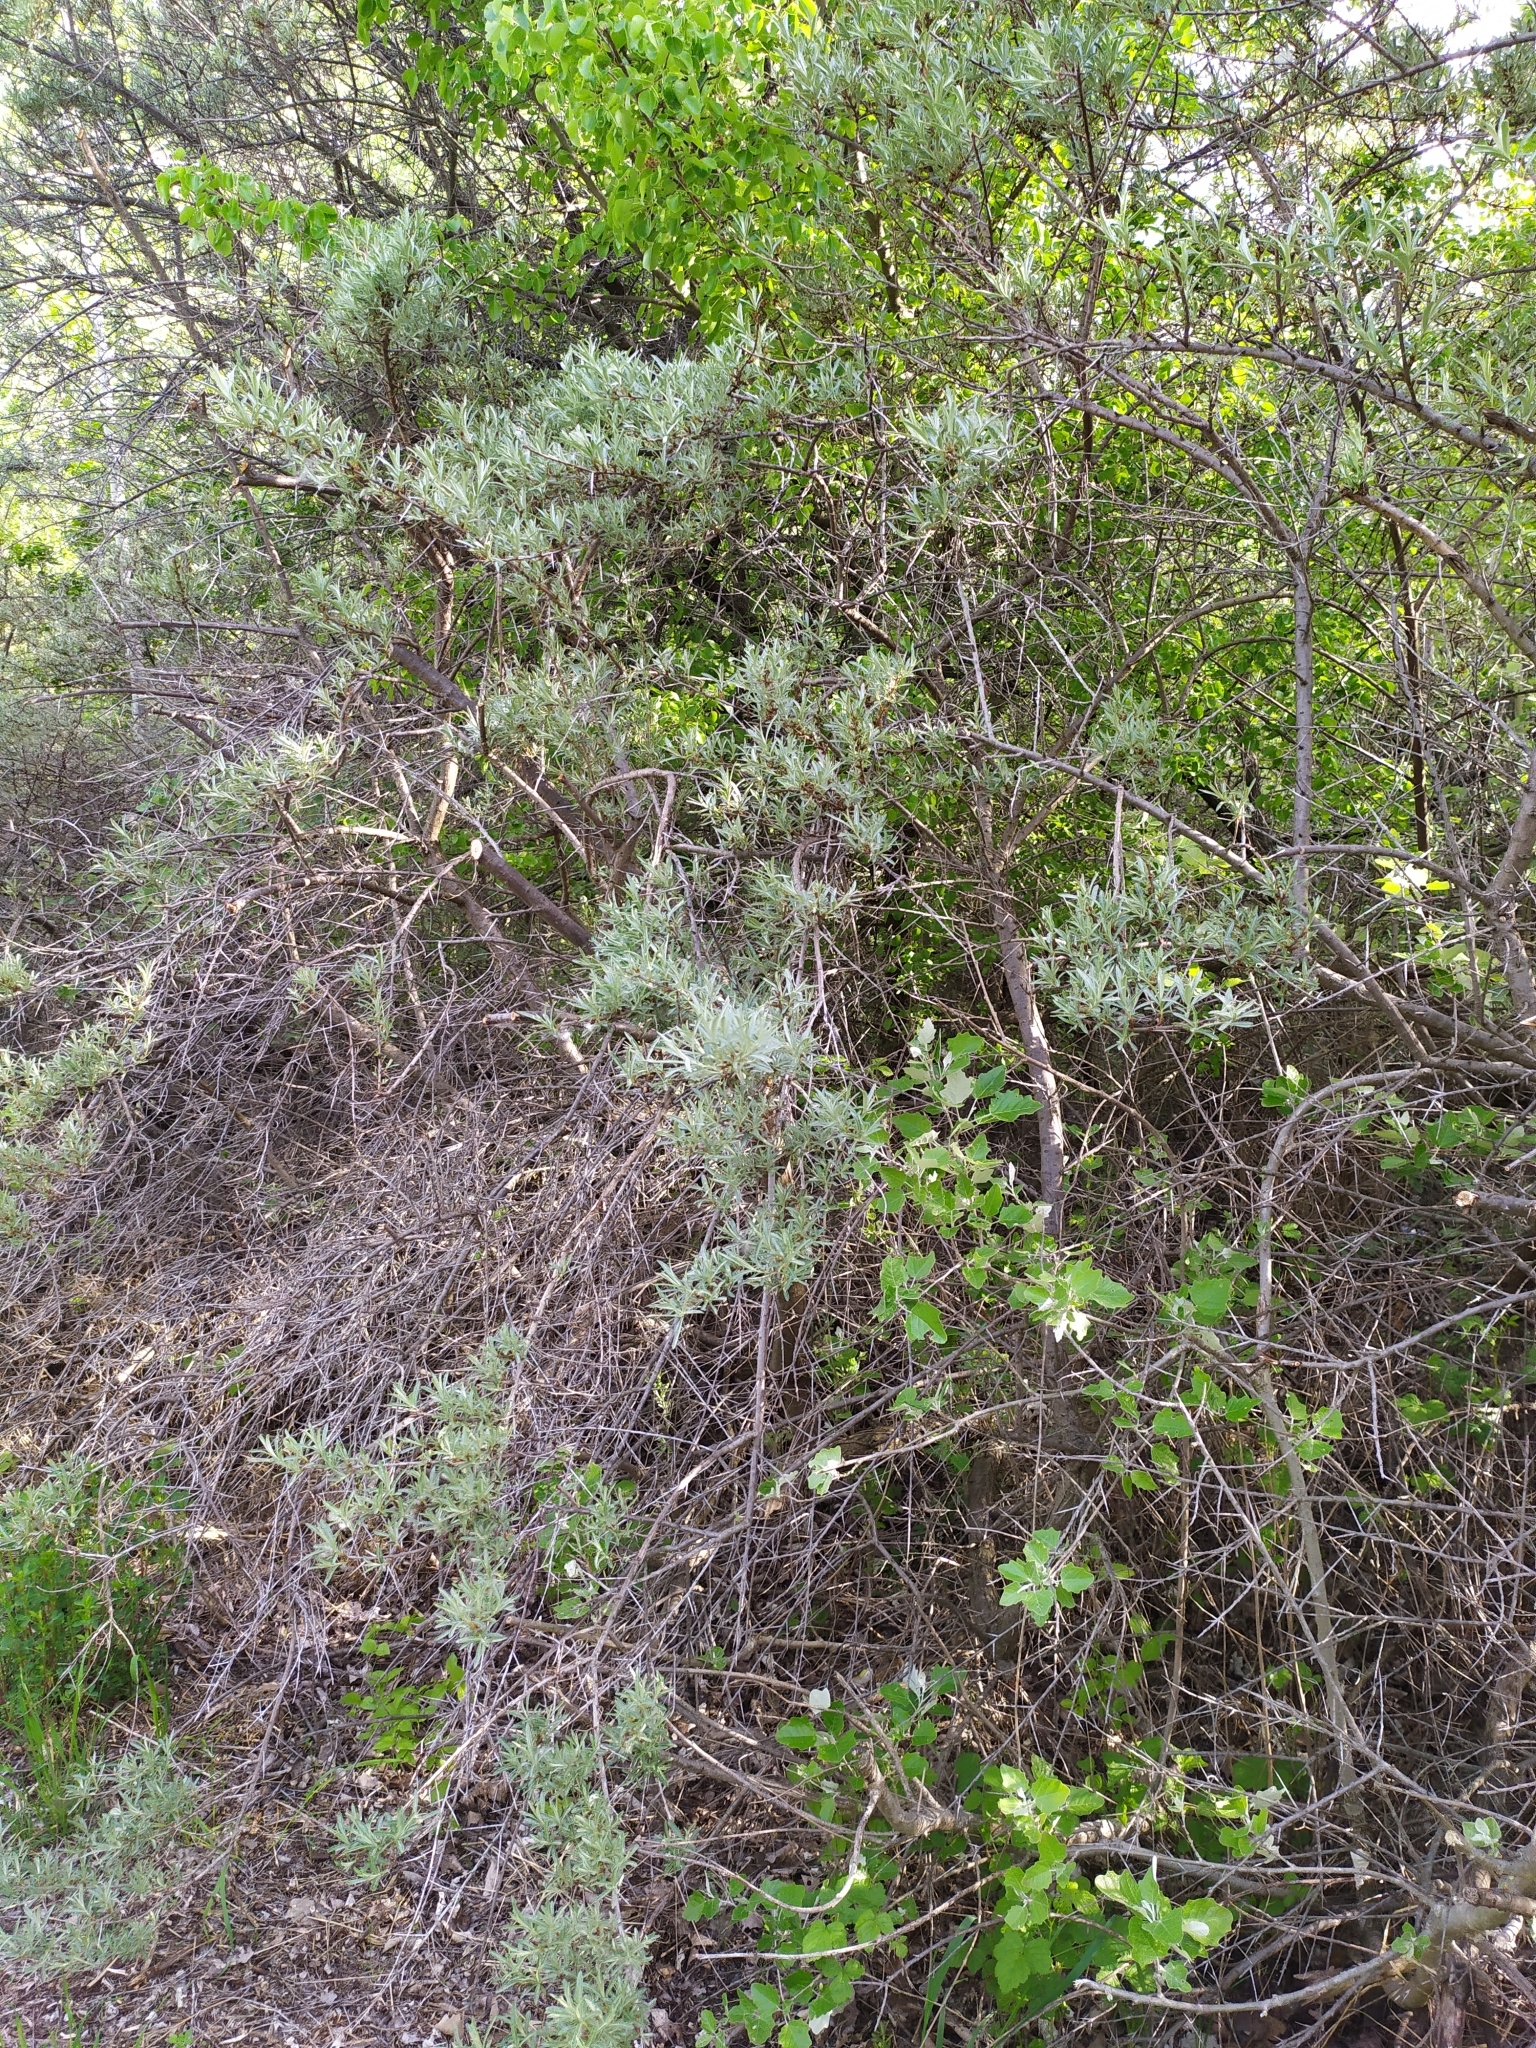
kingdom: Plantae
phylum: Tracheophyta
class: Magnoliopsida
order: Rosales
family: Elaeagnaceae
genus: Hippophae
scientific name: Hippophae rhamnoides
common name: Sea-buckthorn
